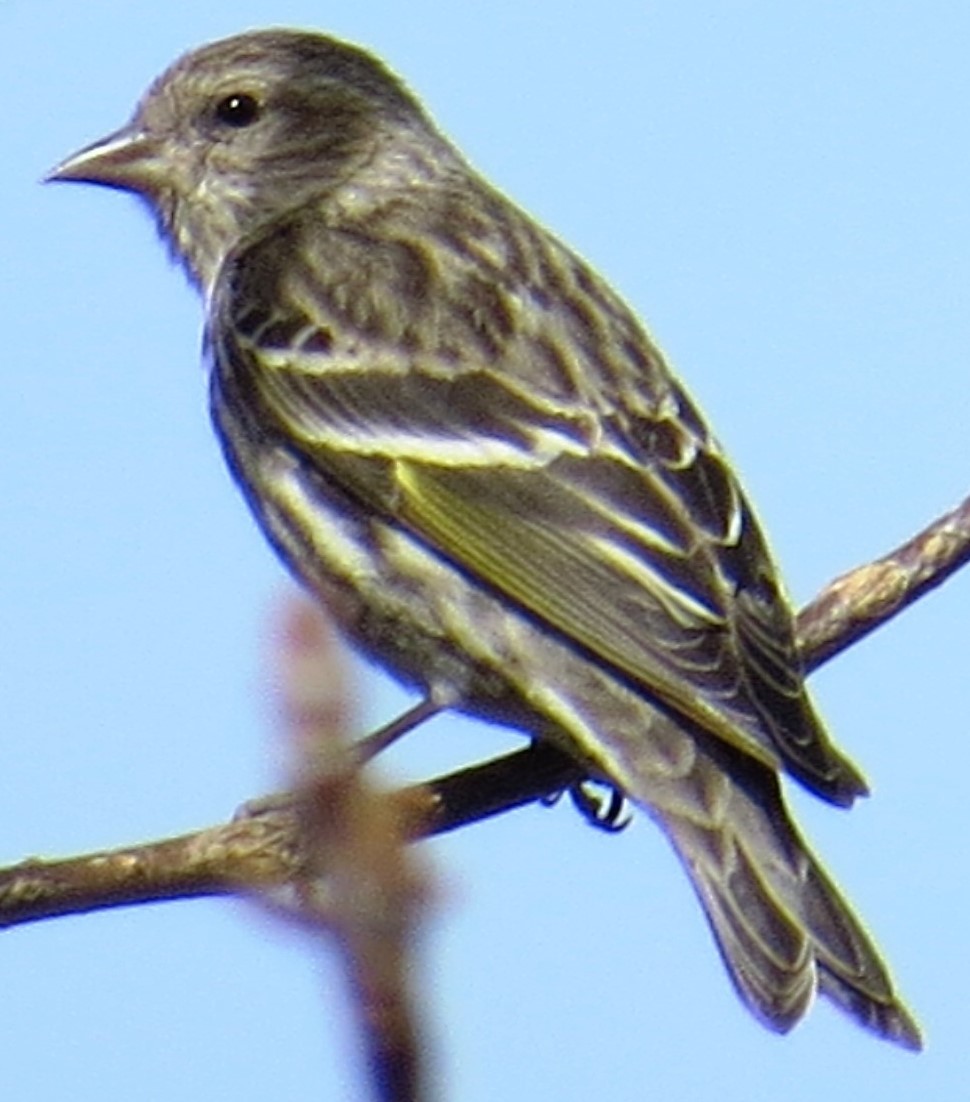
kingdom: Animalia
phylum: Chordata
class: Aves
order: Passeriformes
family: Fringillidae
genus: Spinus
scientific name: Spinus pinus
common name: Pine siskin
